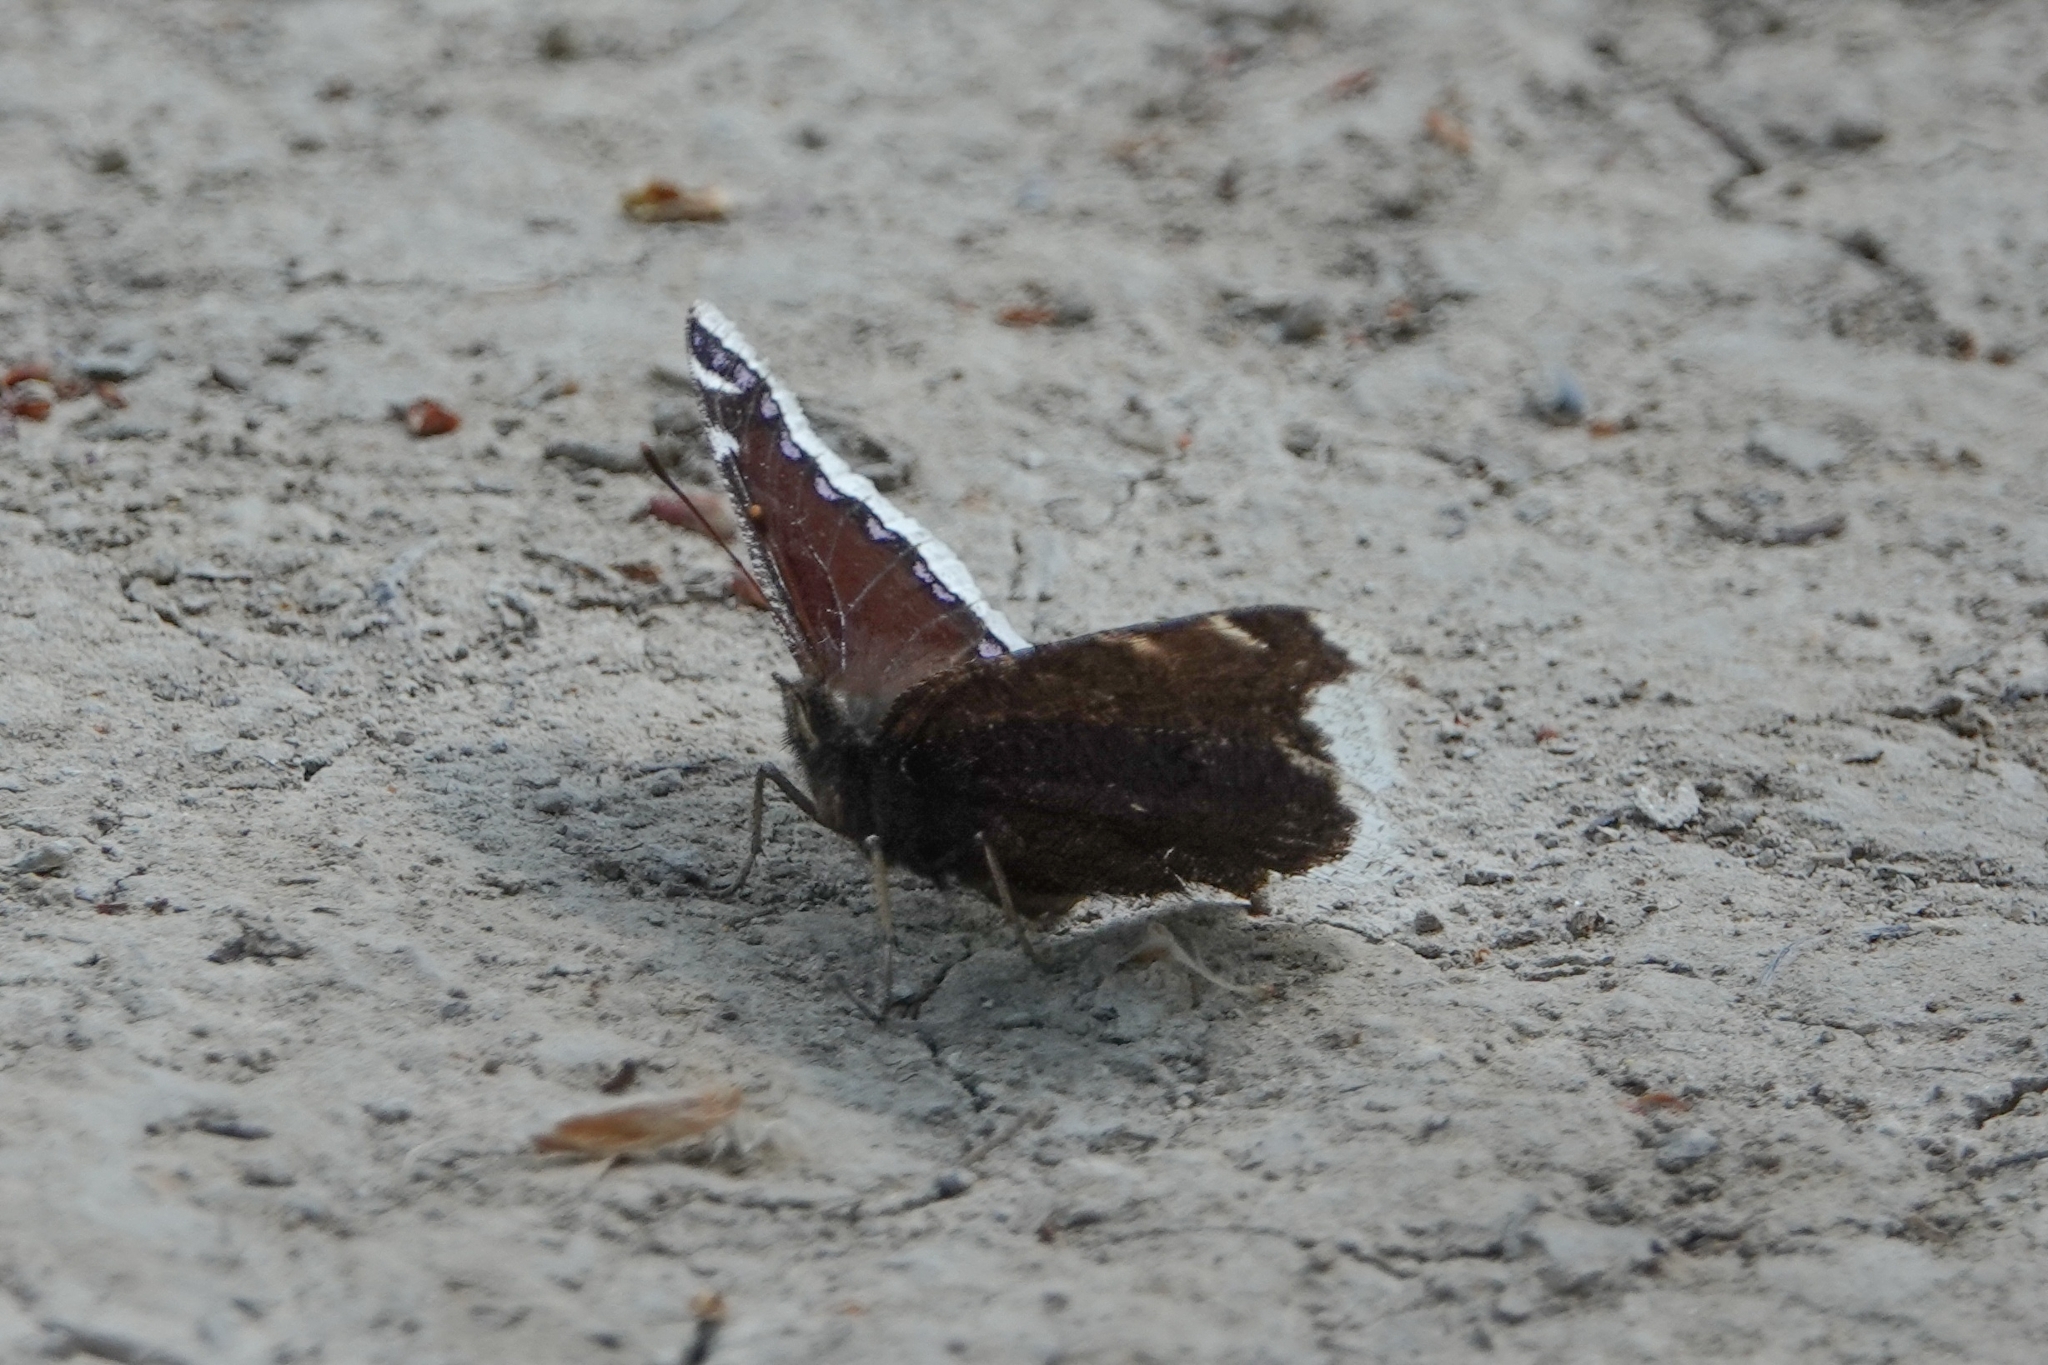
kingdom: Animalia
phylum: Arthropoda
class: Insecta
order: Lepidoptera
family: Nymphalidae
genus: Nymphalis
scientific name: Nymphalis antiopa
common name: Camberwell beauty
